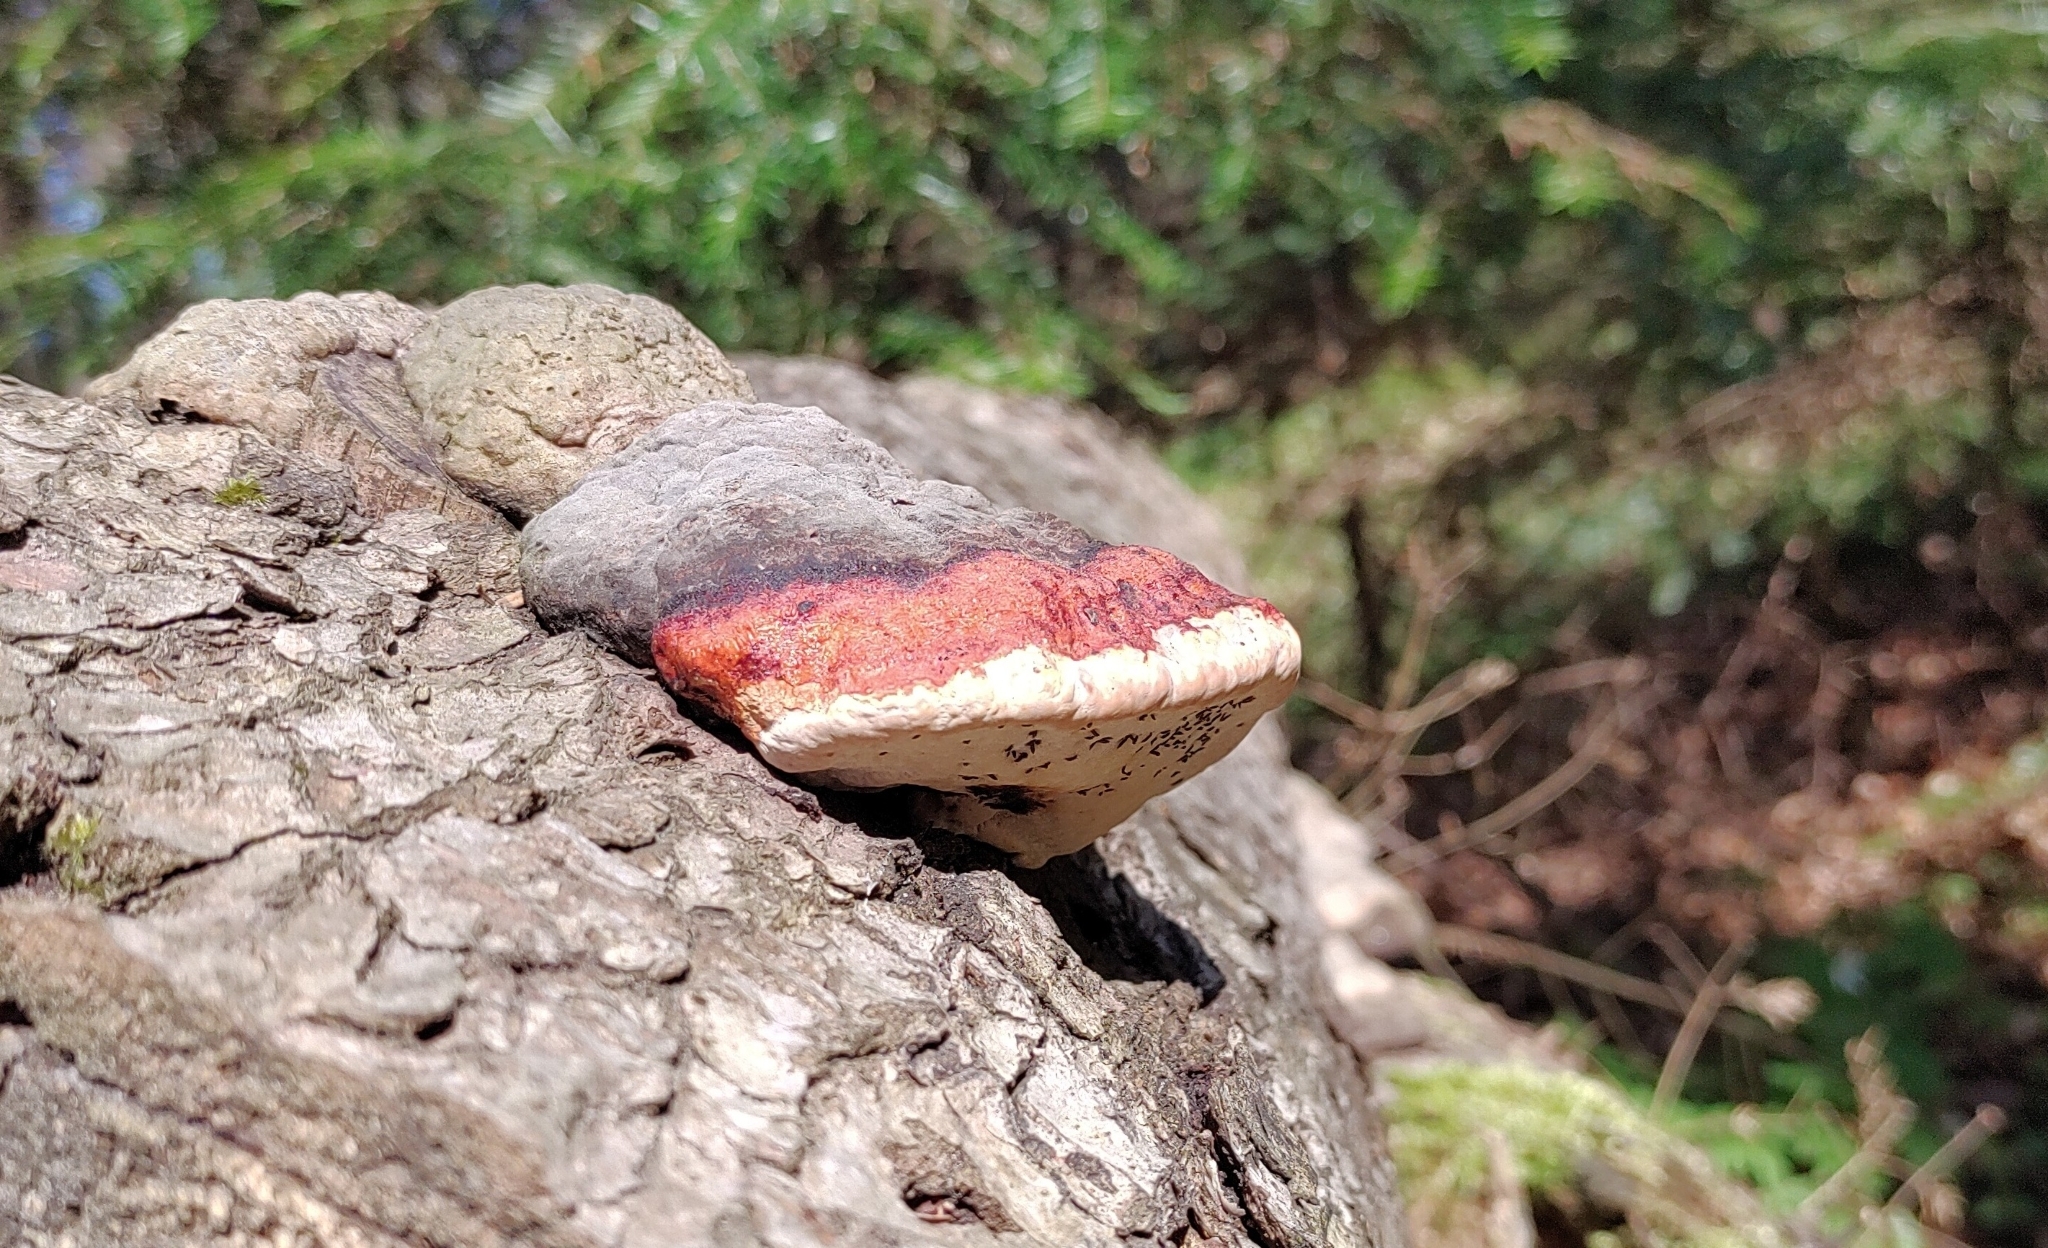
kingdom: Fungi
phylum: Basidiomycota
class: Agaricomycetes
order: Polyporales
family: Fomitopsidaceae
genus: Fomitopsis
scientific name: Fomitopsis pinicola
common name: Red-belted bracket
